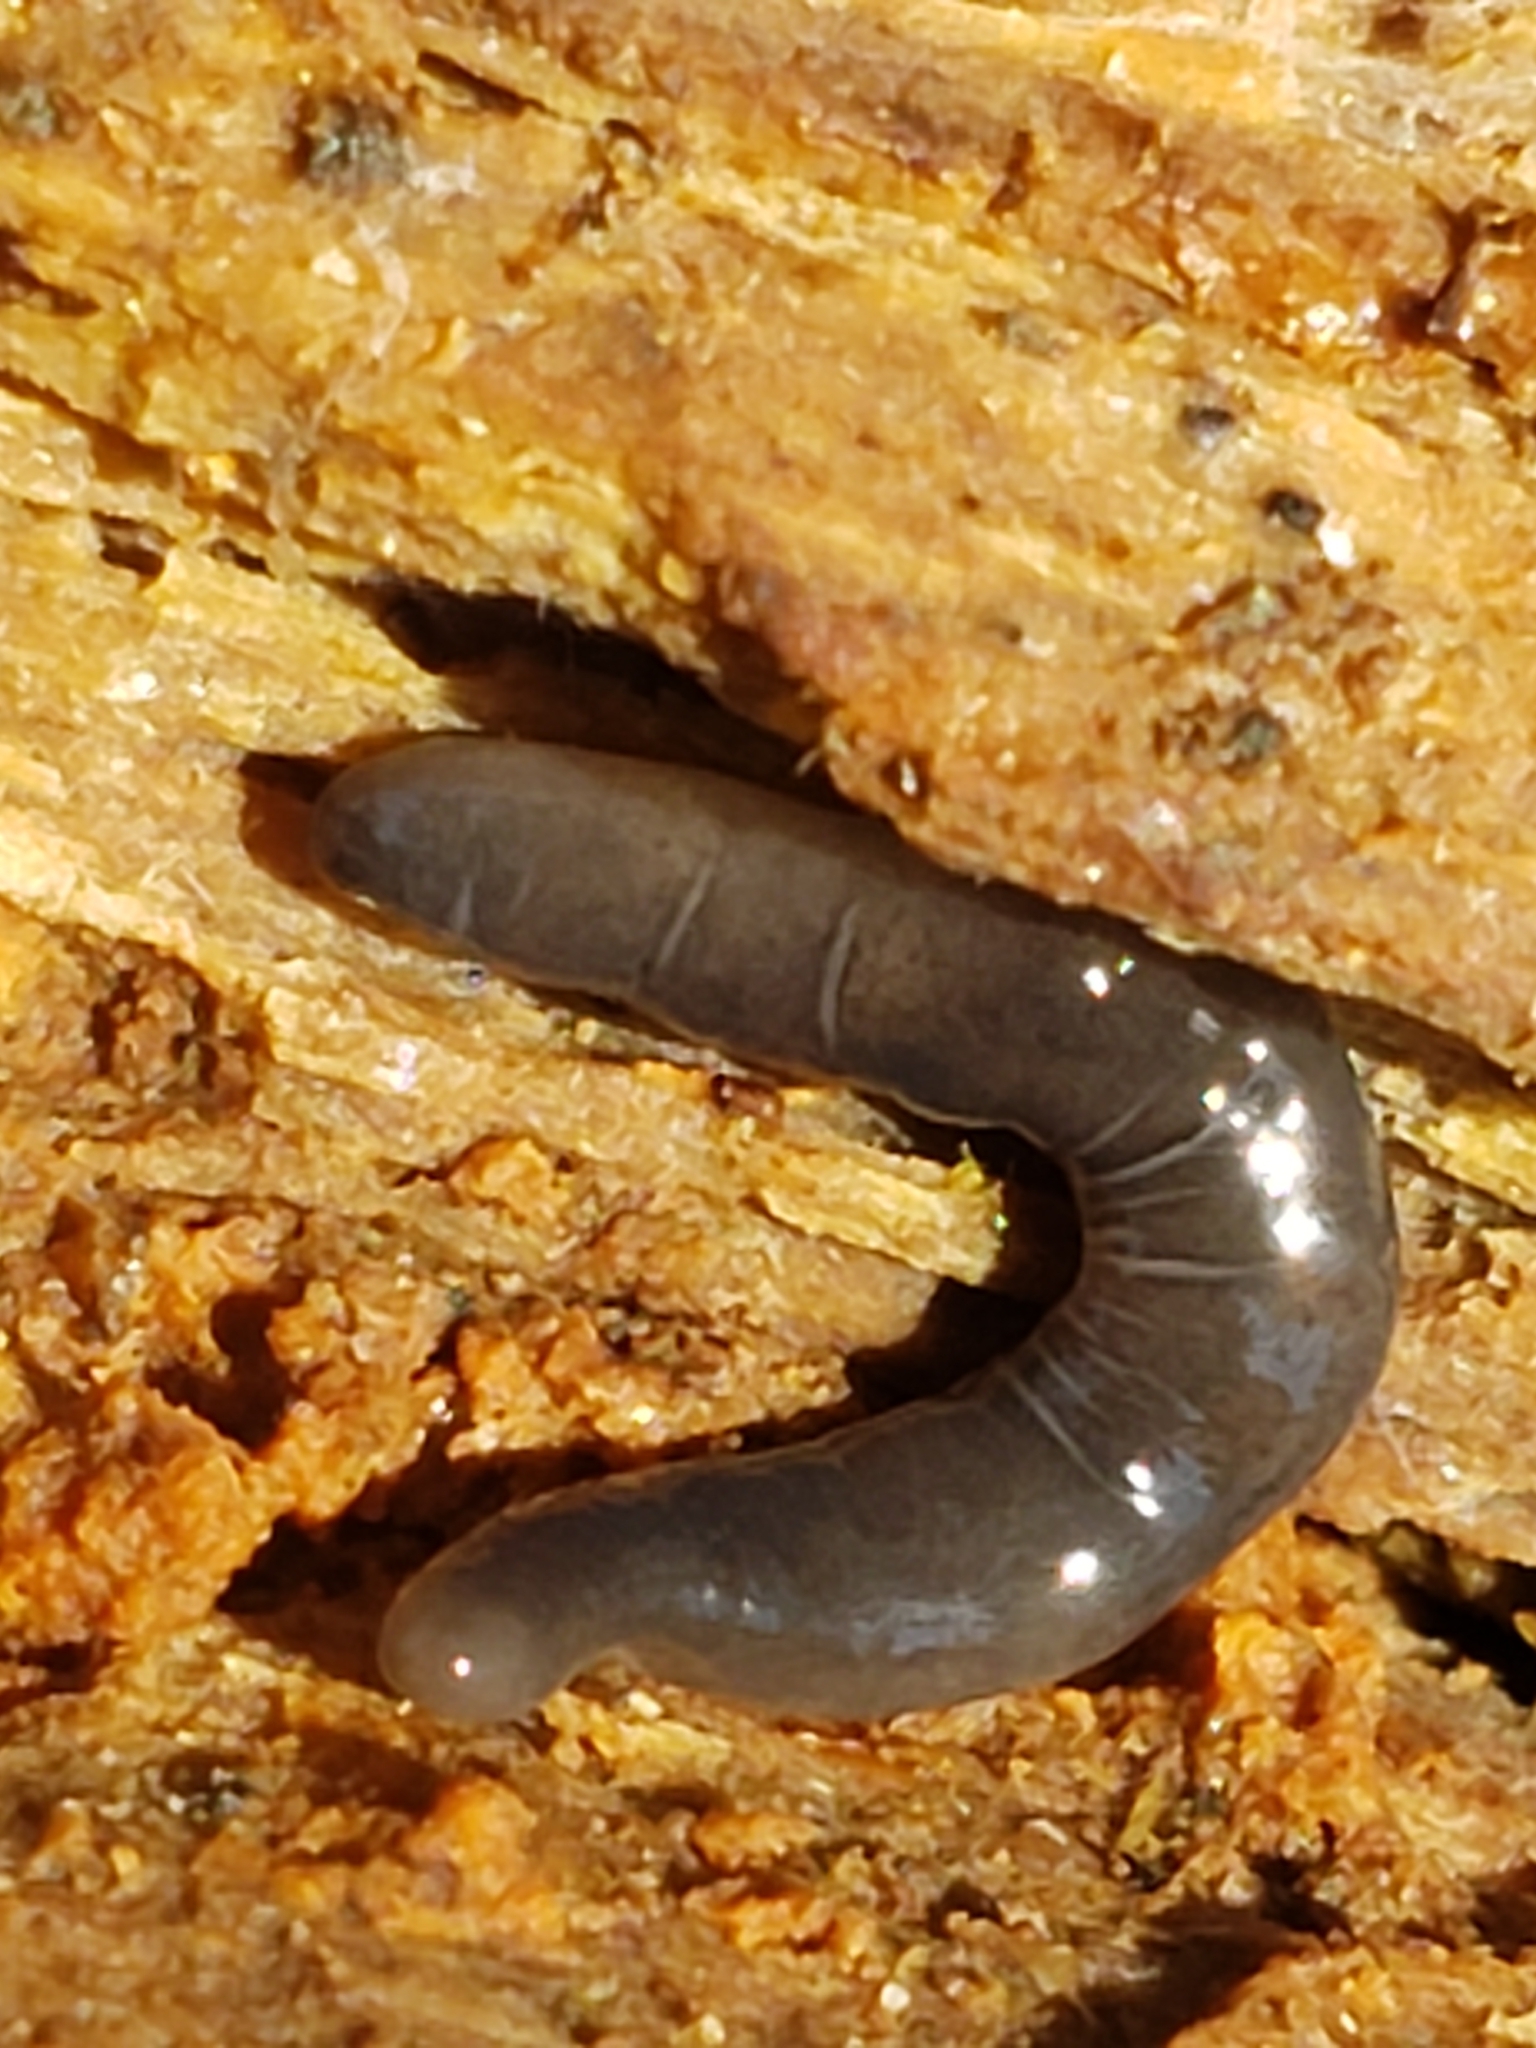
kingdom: Animalia
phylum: Platyhelminthes
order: Tricladida
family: Geoplanidae
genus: Microplana
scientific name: Microplana terrestris
